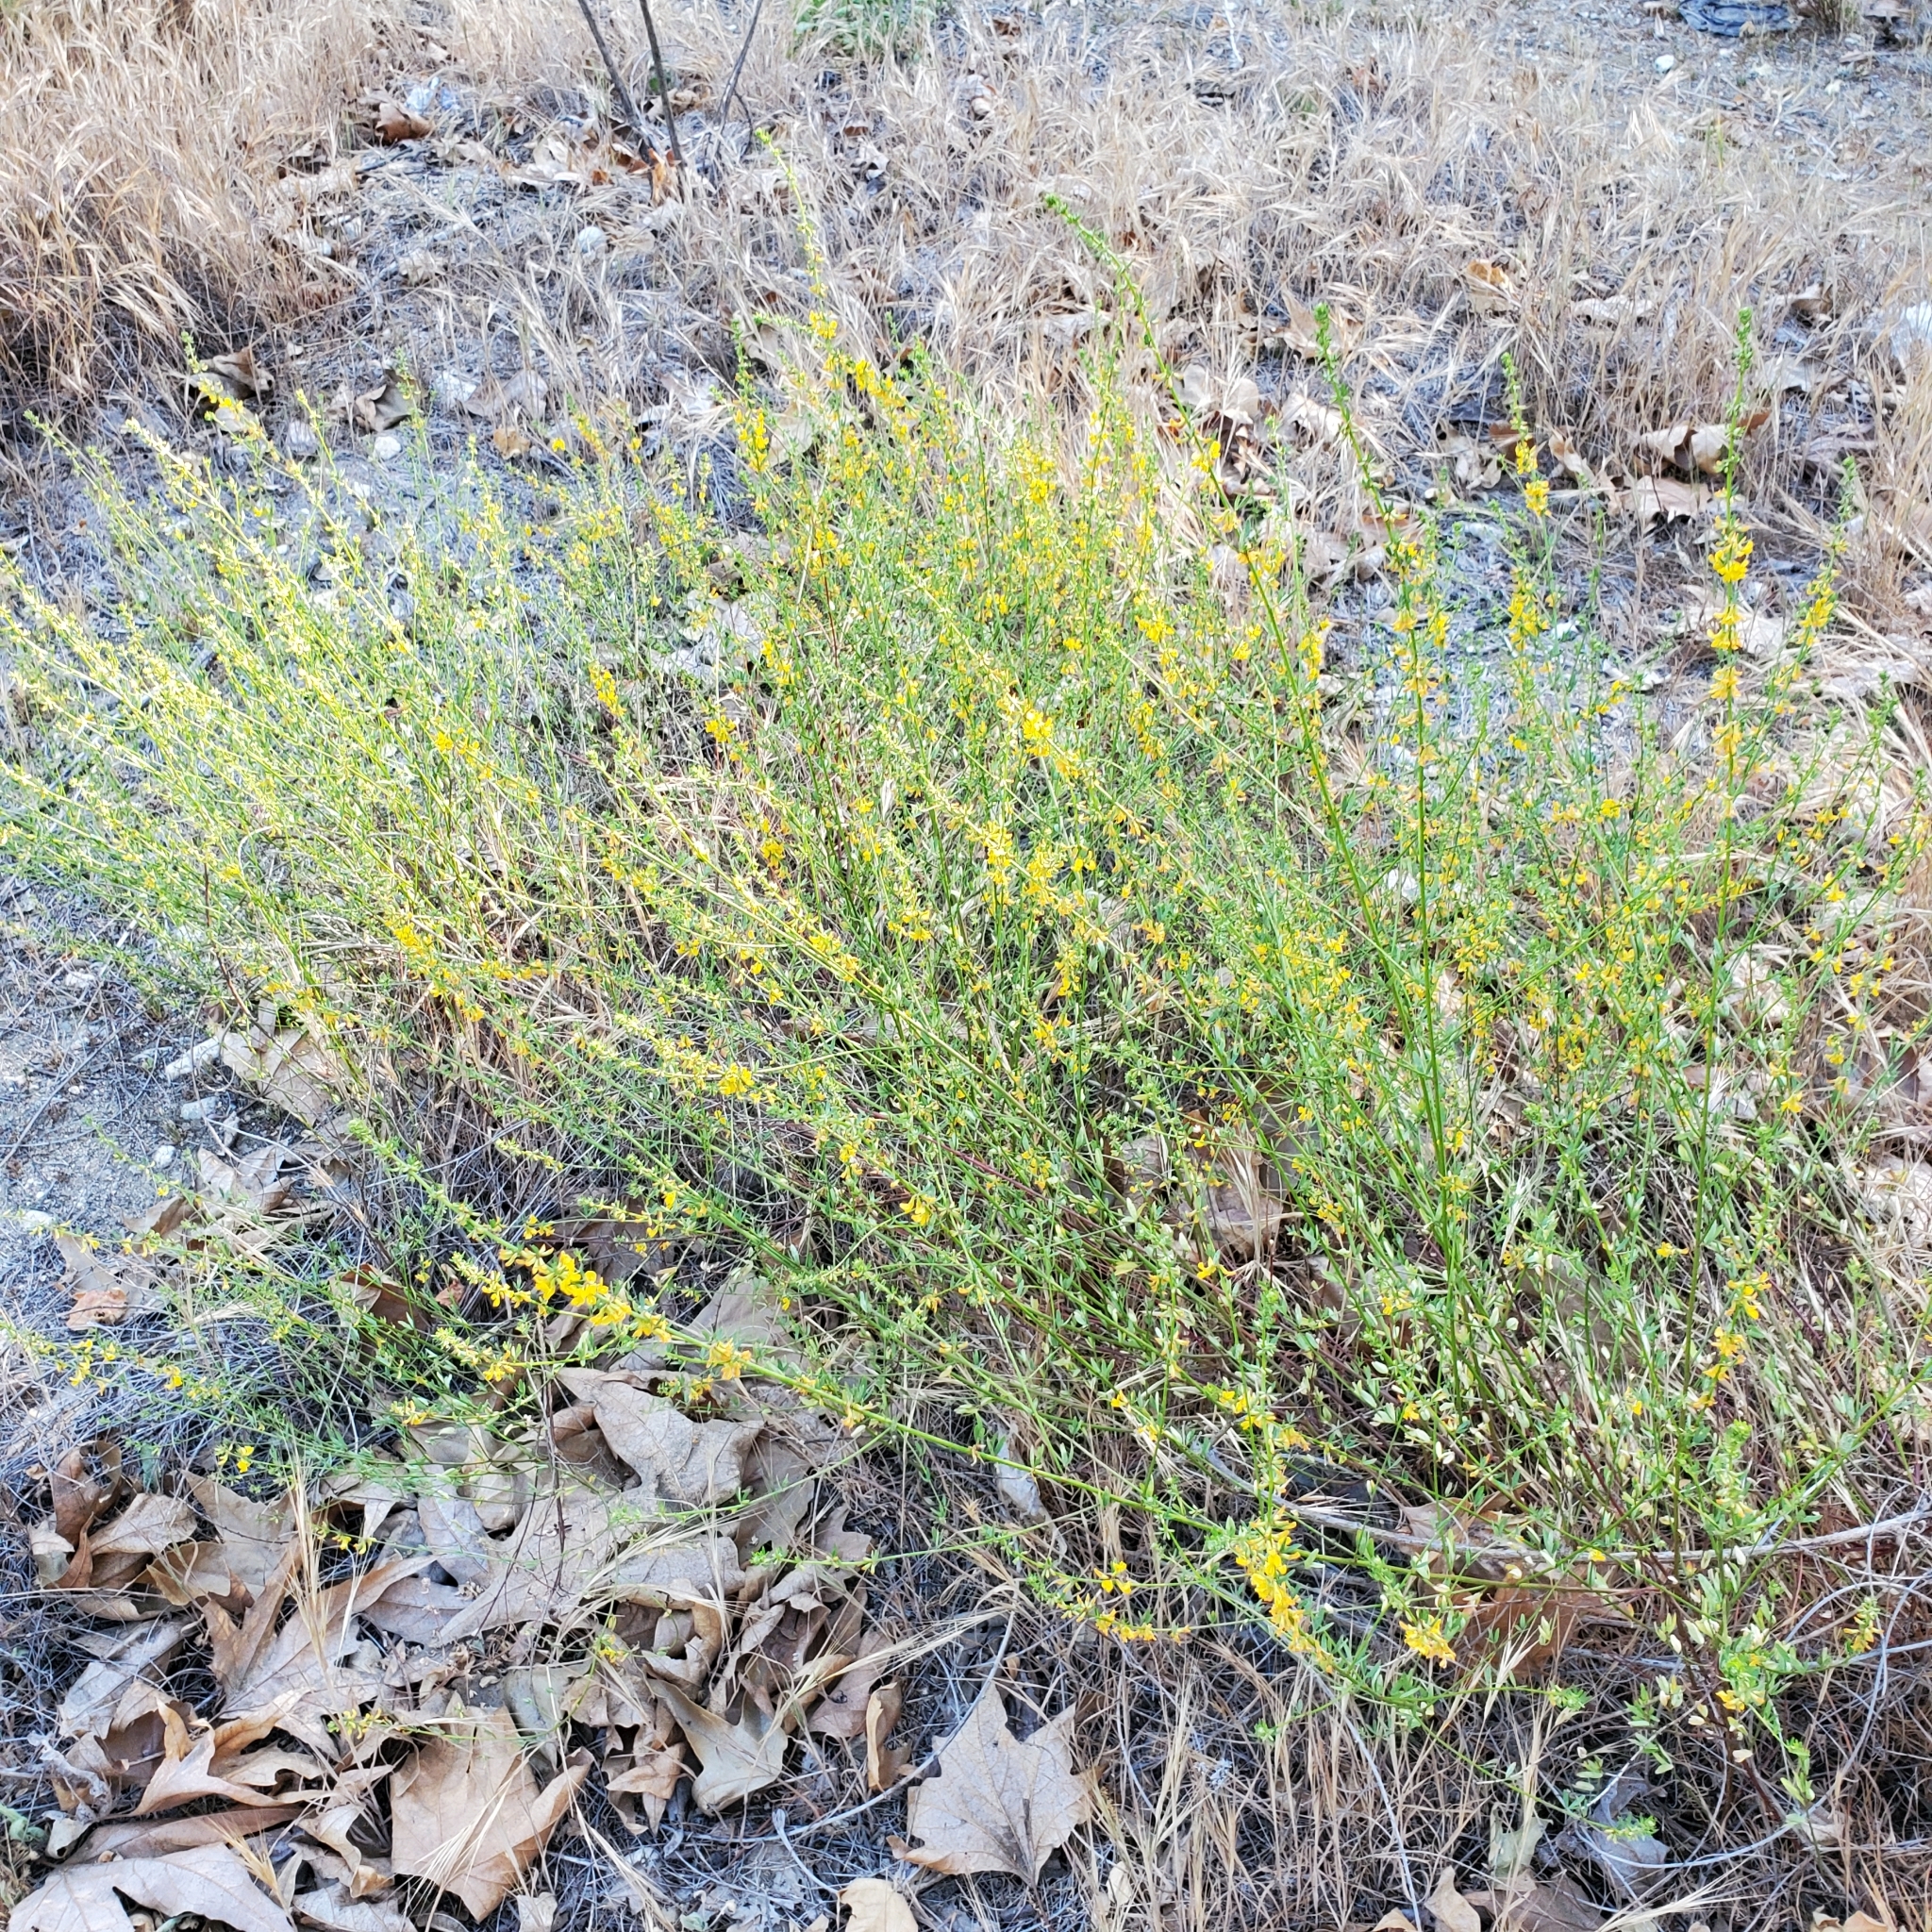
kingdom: Plantae
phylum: Tracheophyta
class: Magnoliopsida
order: Fabales
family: Fabaceae
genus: Acmispon
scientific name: Acmispon glaber
